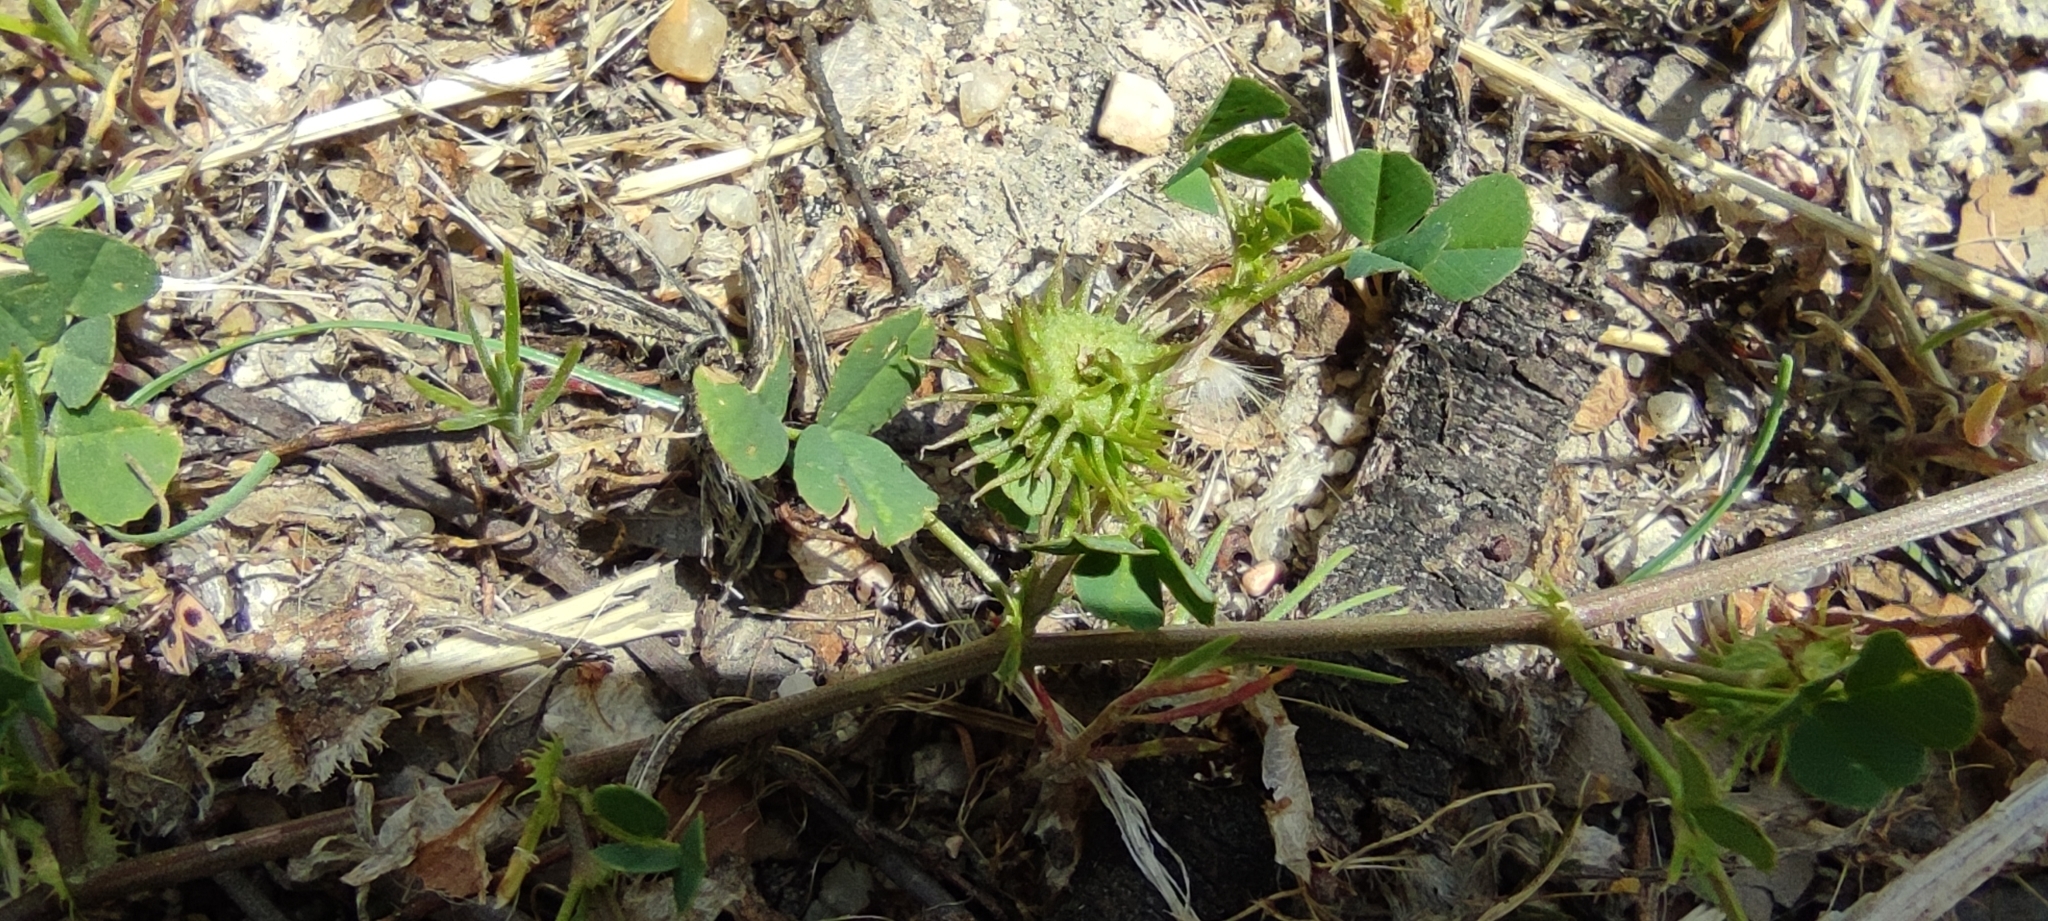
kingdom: Plantae
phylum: Tracheophyta
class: Magnoliopsida
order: Fabales
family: Fabaceae
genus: Medicago
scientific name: Medicago polymorpha
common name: Burclover
